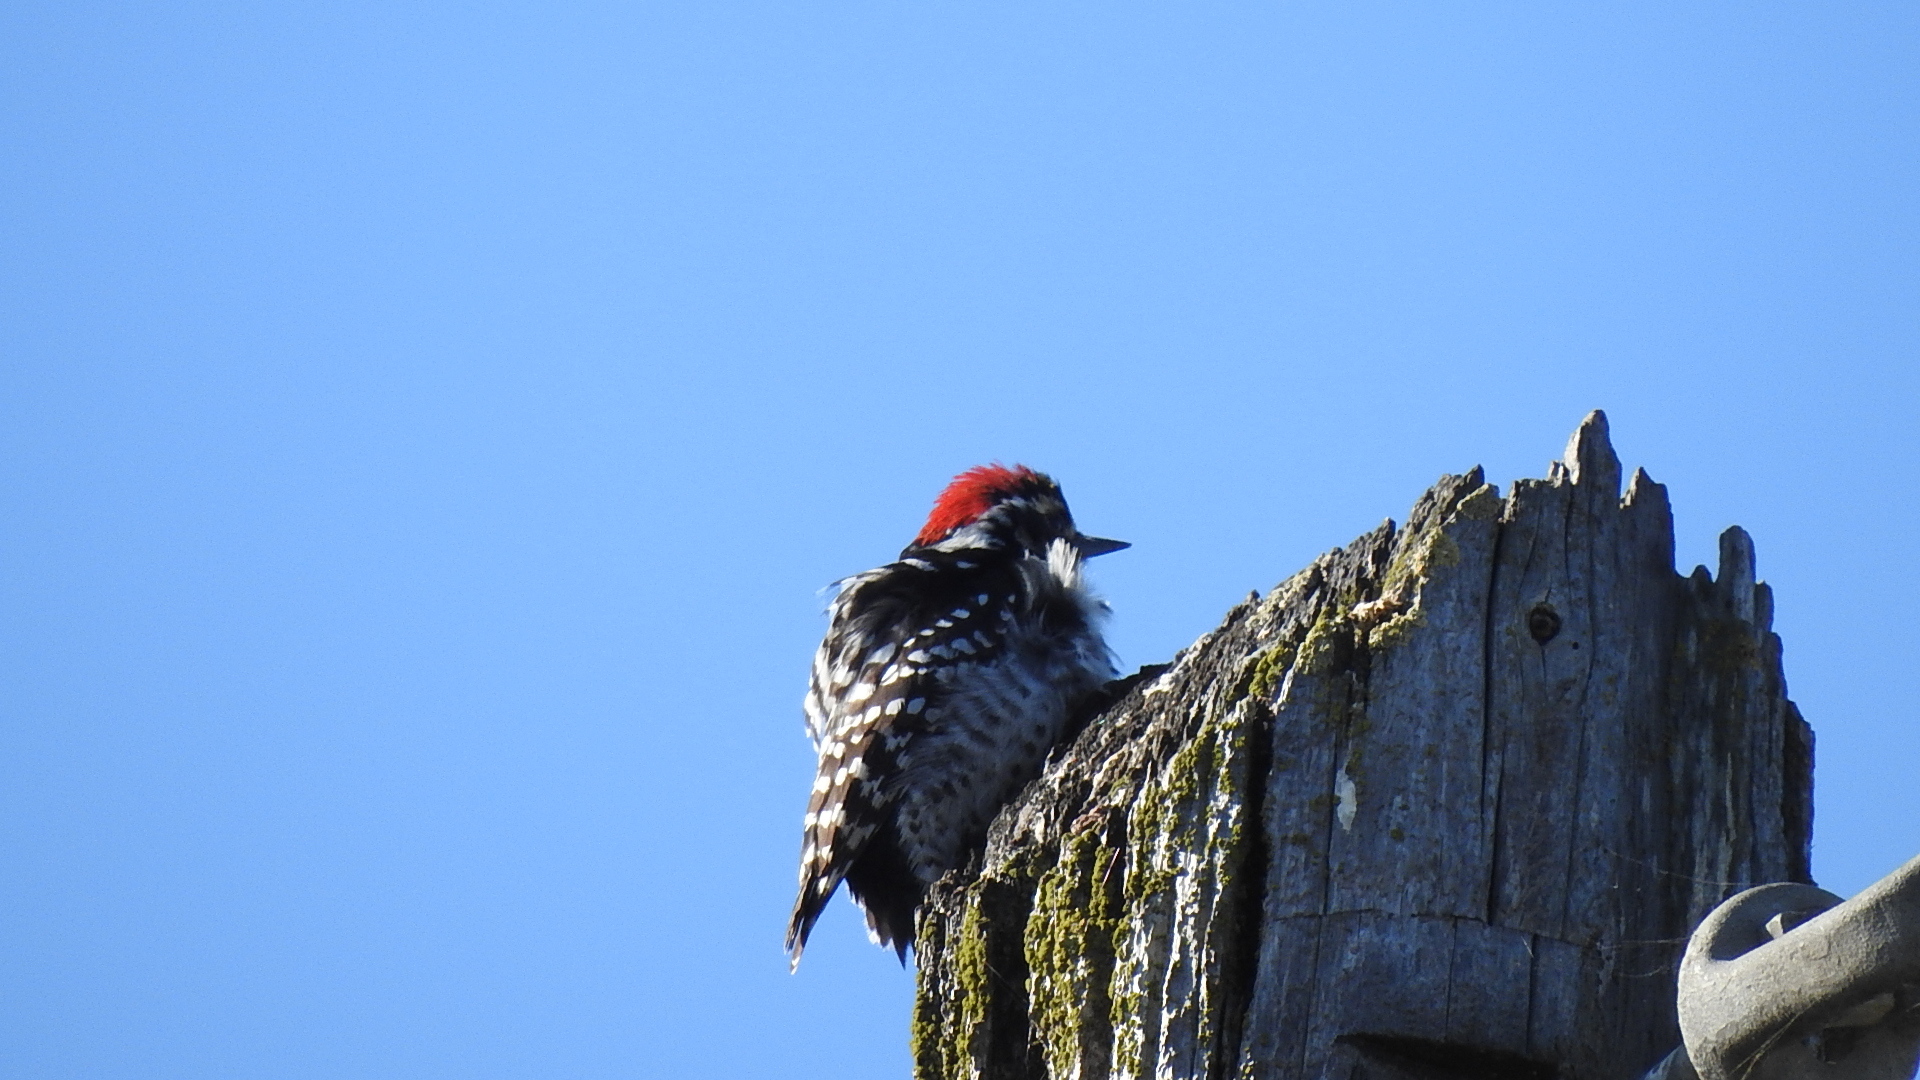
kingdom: Animalia
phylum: Chordata
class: Aves
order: Piciformes
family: Picidae
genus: Dryobates
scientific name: Dryobates nuttallii
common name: Nuttall's woodpecker
